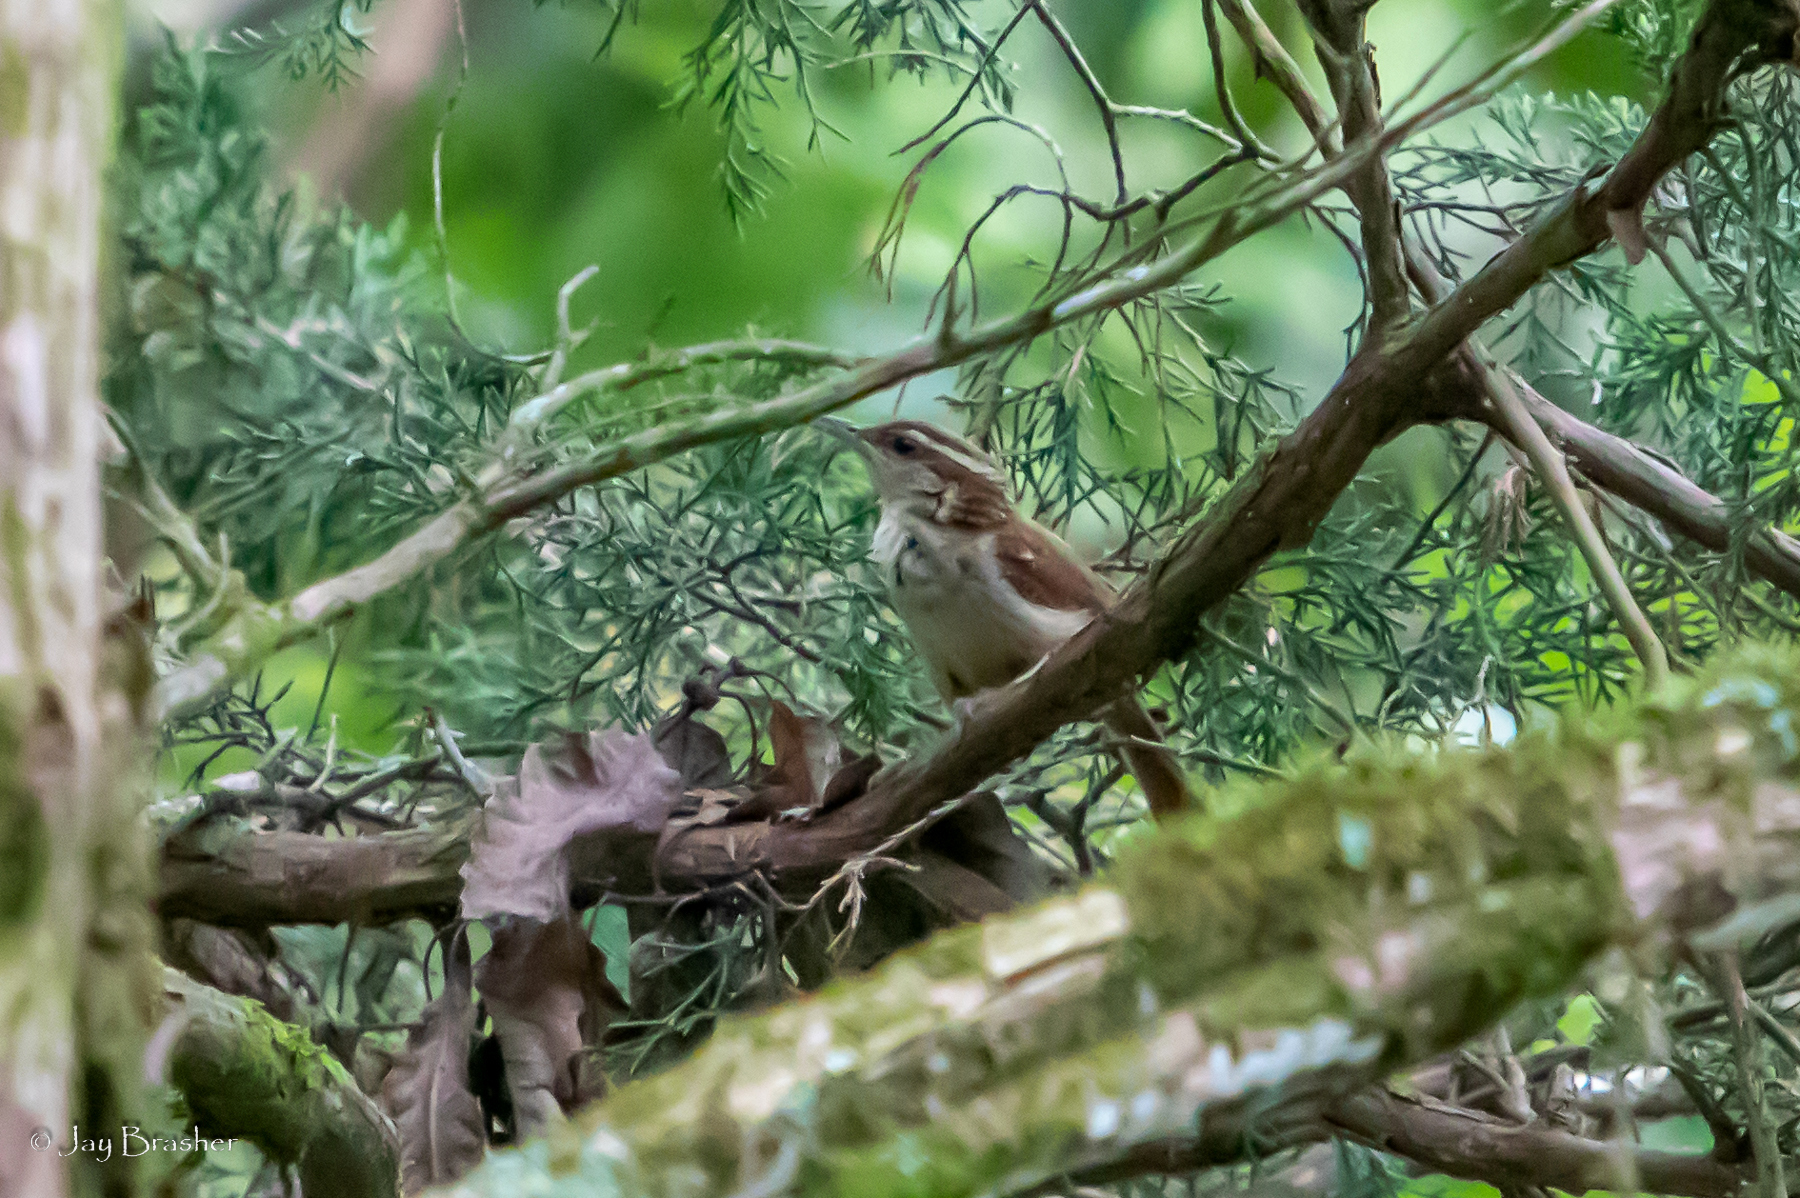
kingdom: Animalia
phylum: Chordata
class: Aves
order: Passeriformes
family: Troglodytidae
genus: Thryothorus
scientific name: Thryothorus ludovicianus
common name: Carolina wren
